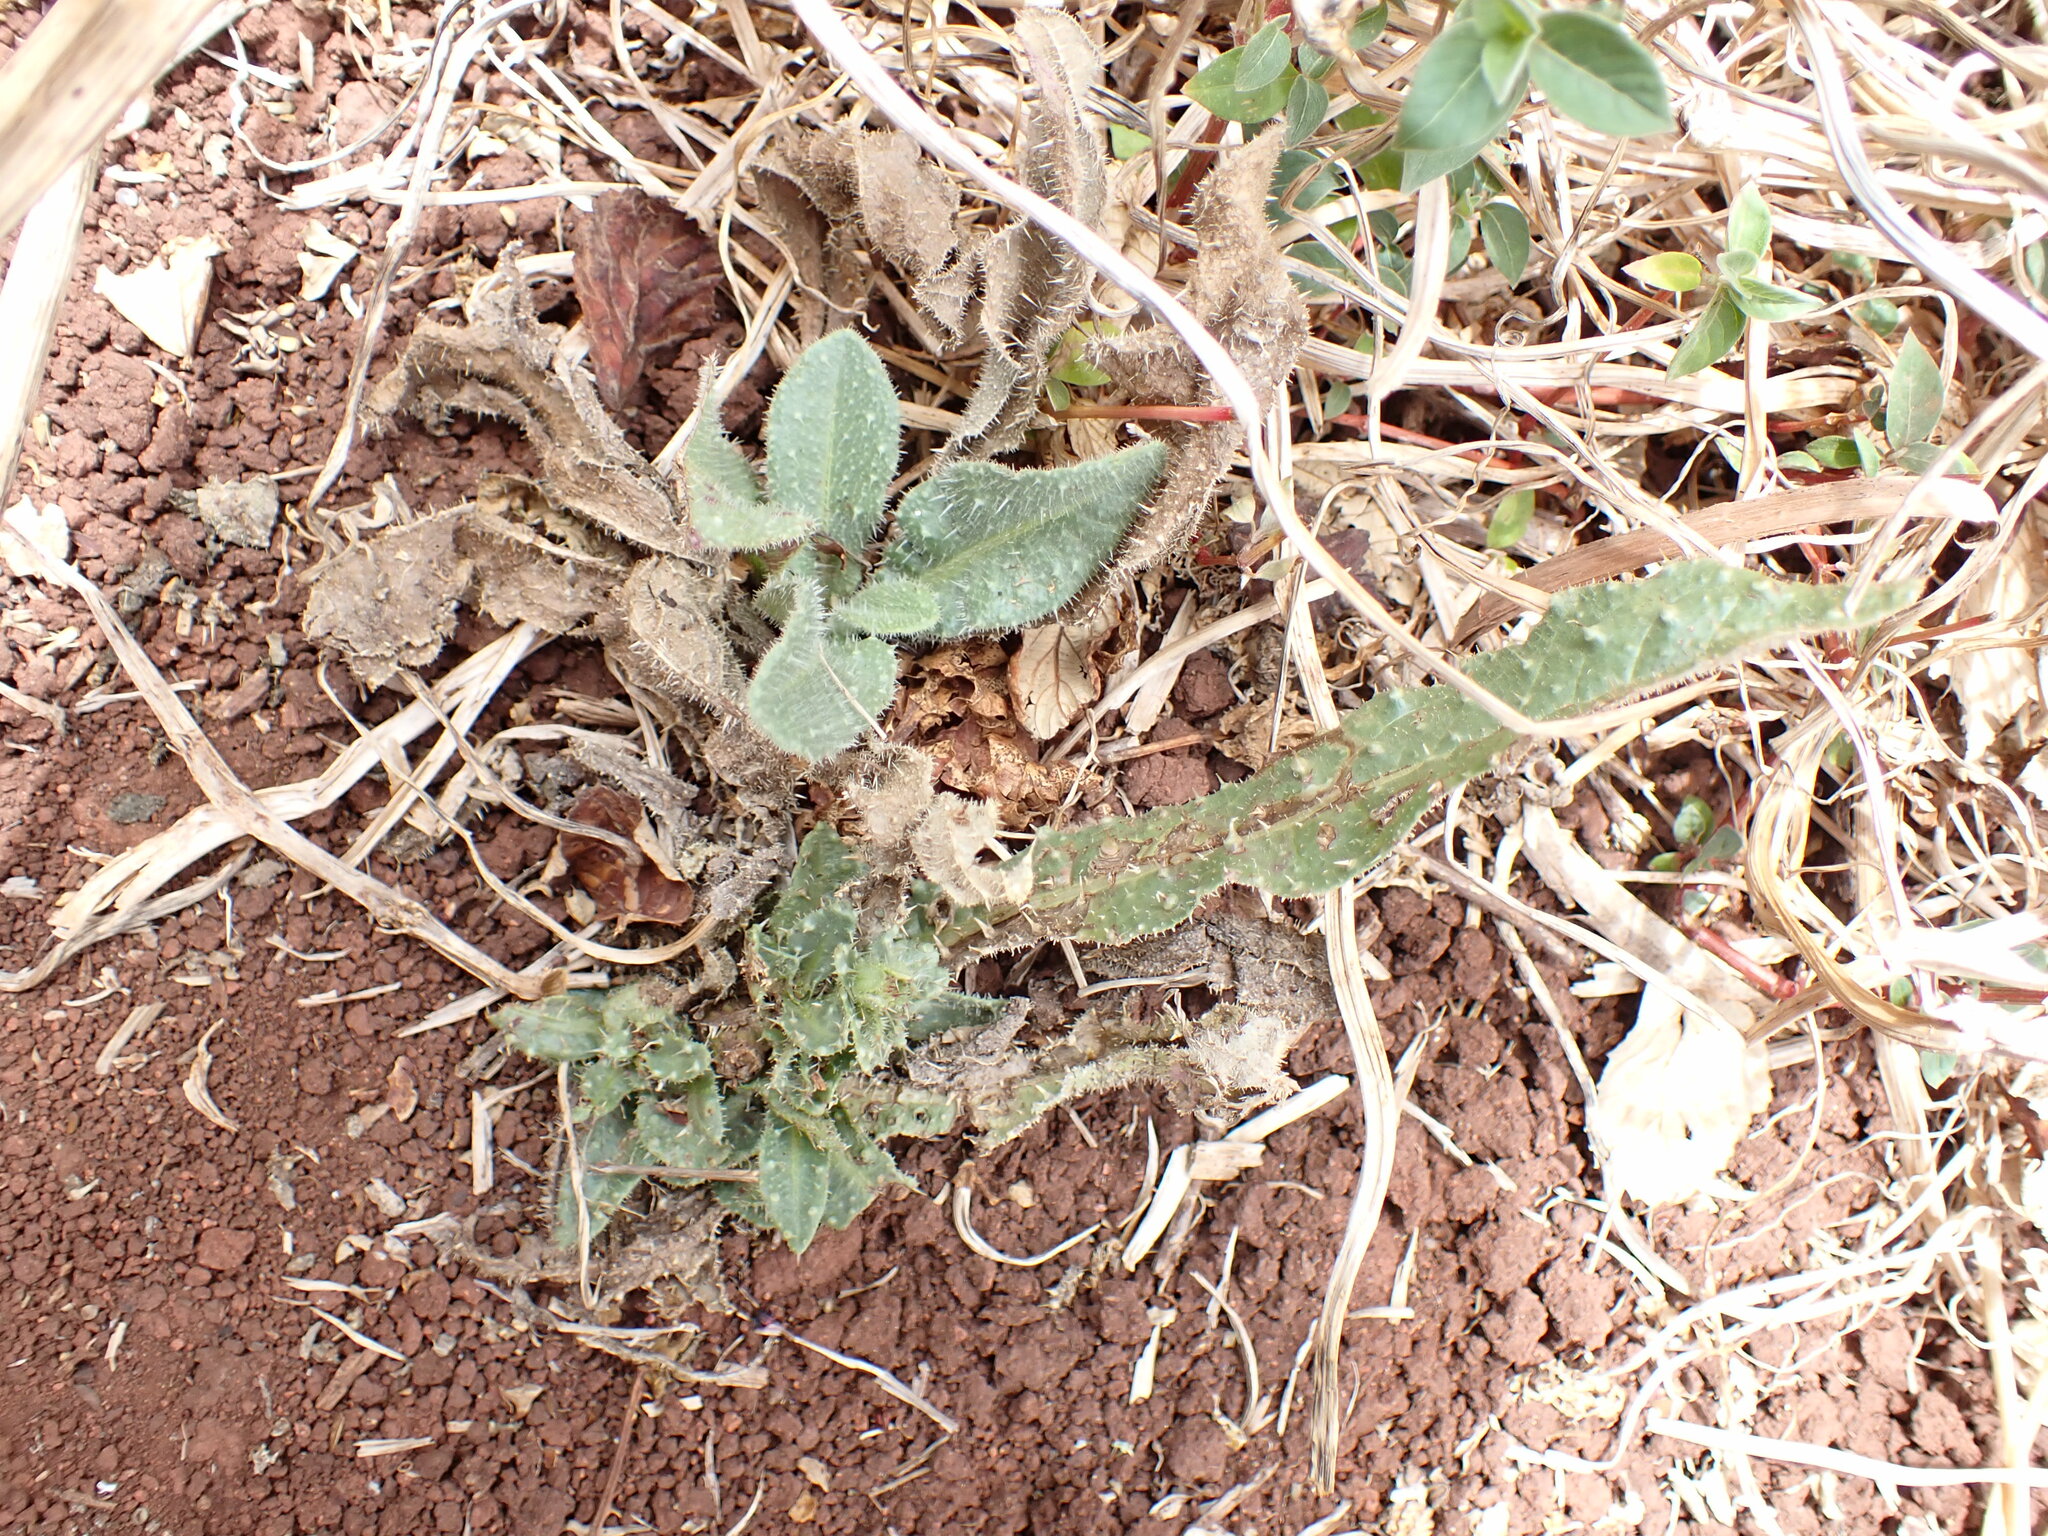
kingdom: Plantae
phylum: Tracheophyta
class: Magnoliopsida
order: Asterales
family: Asteraceae
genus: Helminthotheca
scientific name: Helminthotheca echioides
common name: Ox-tongue
